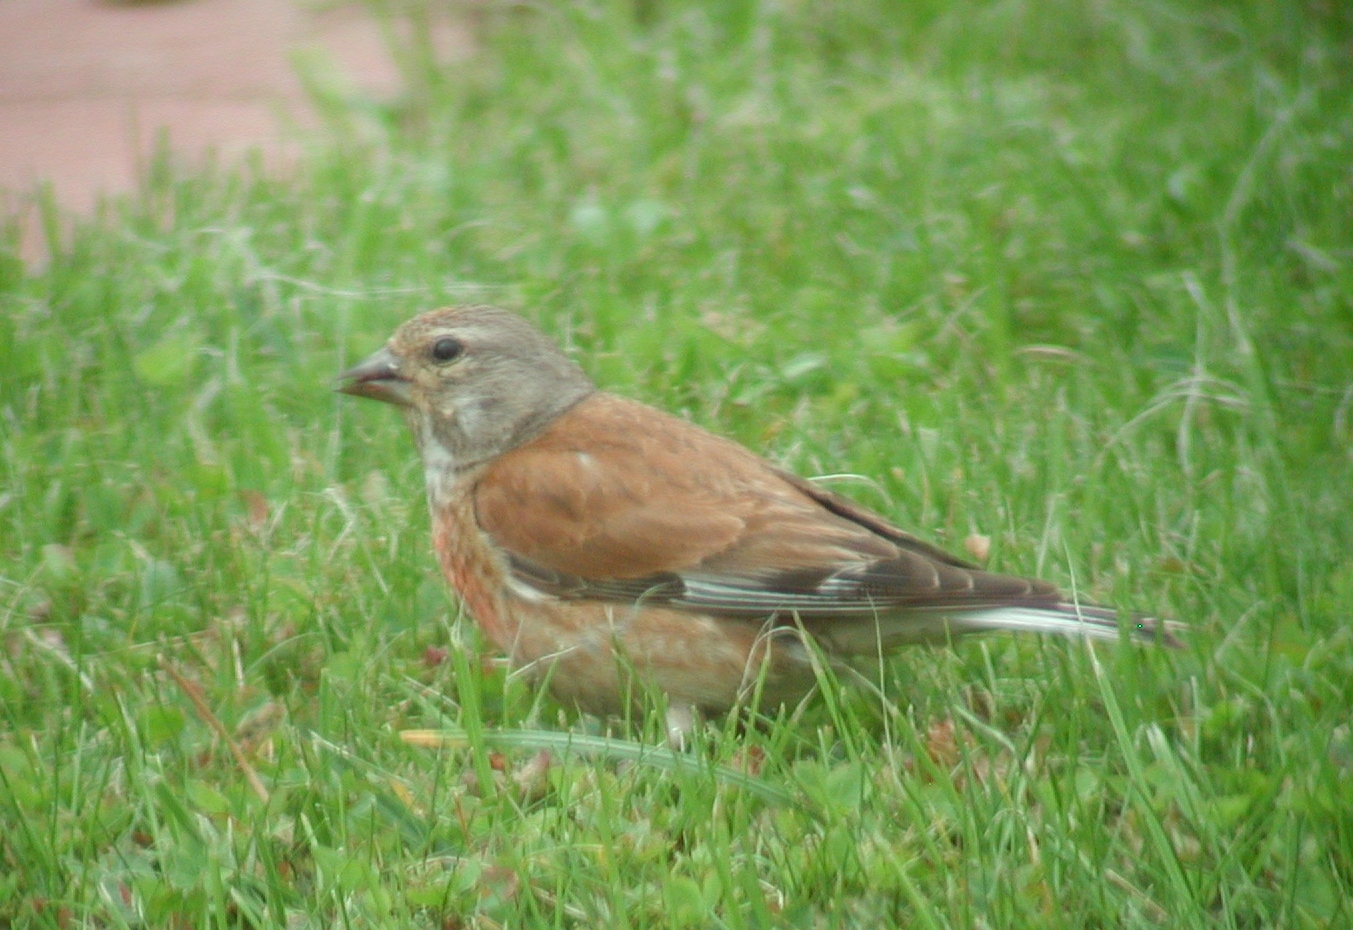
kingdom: Animalia
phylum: Chordata
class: Aves
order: Passeriformes
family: Fringillidae
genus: Linaria
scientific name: Linaria cannabina
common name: Common linnet
